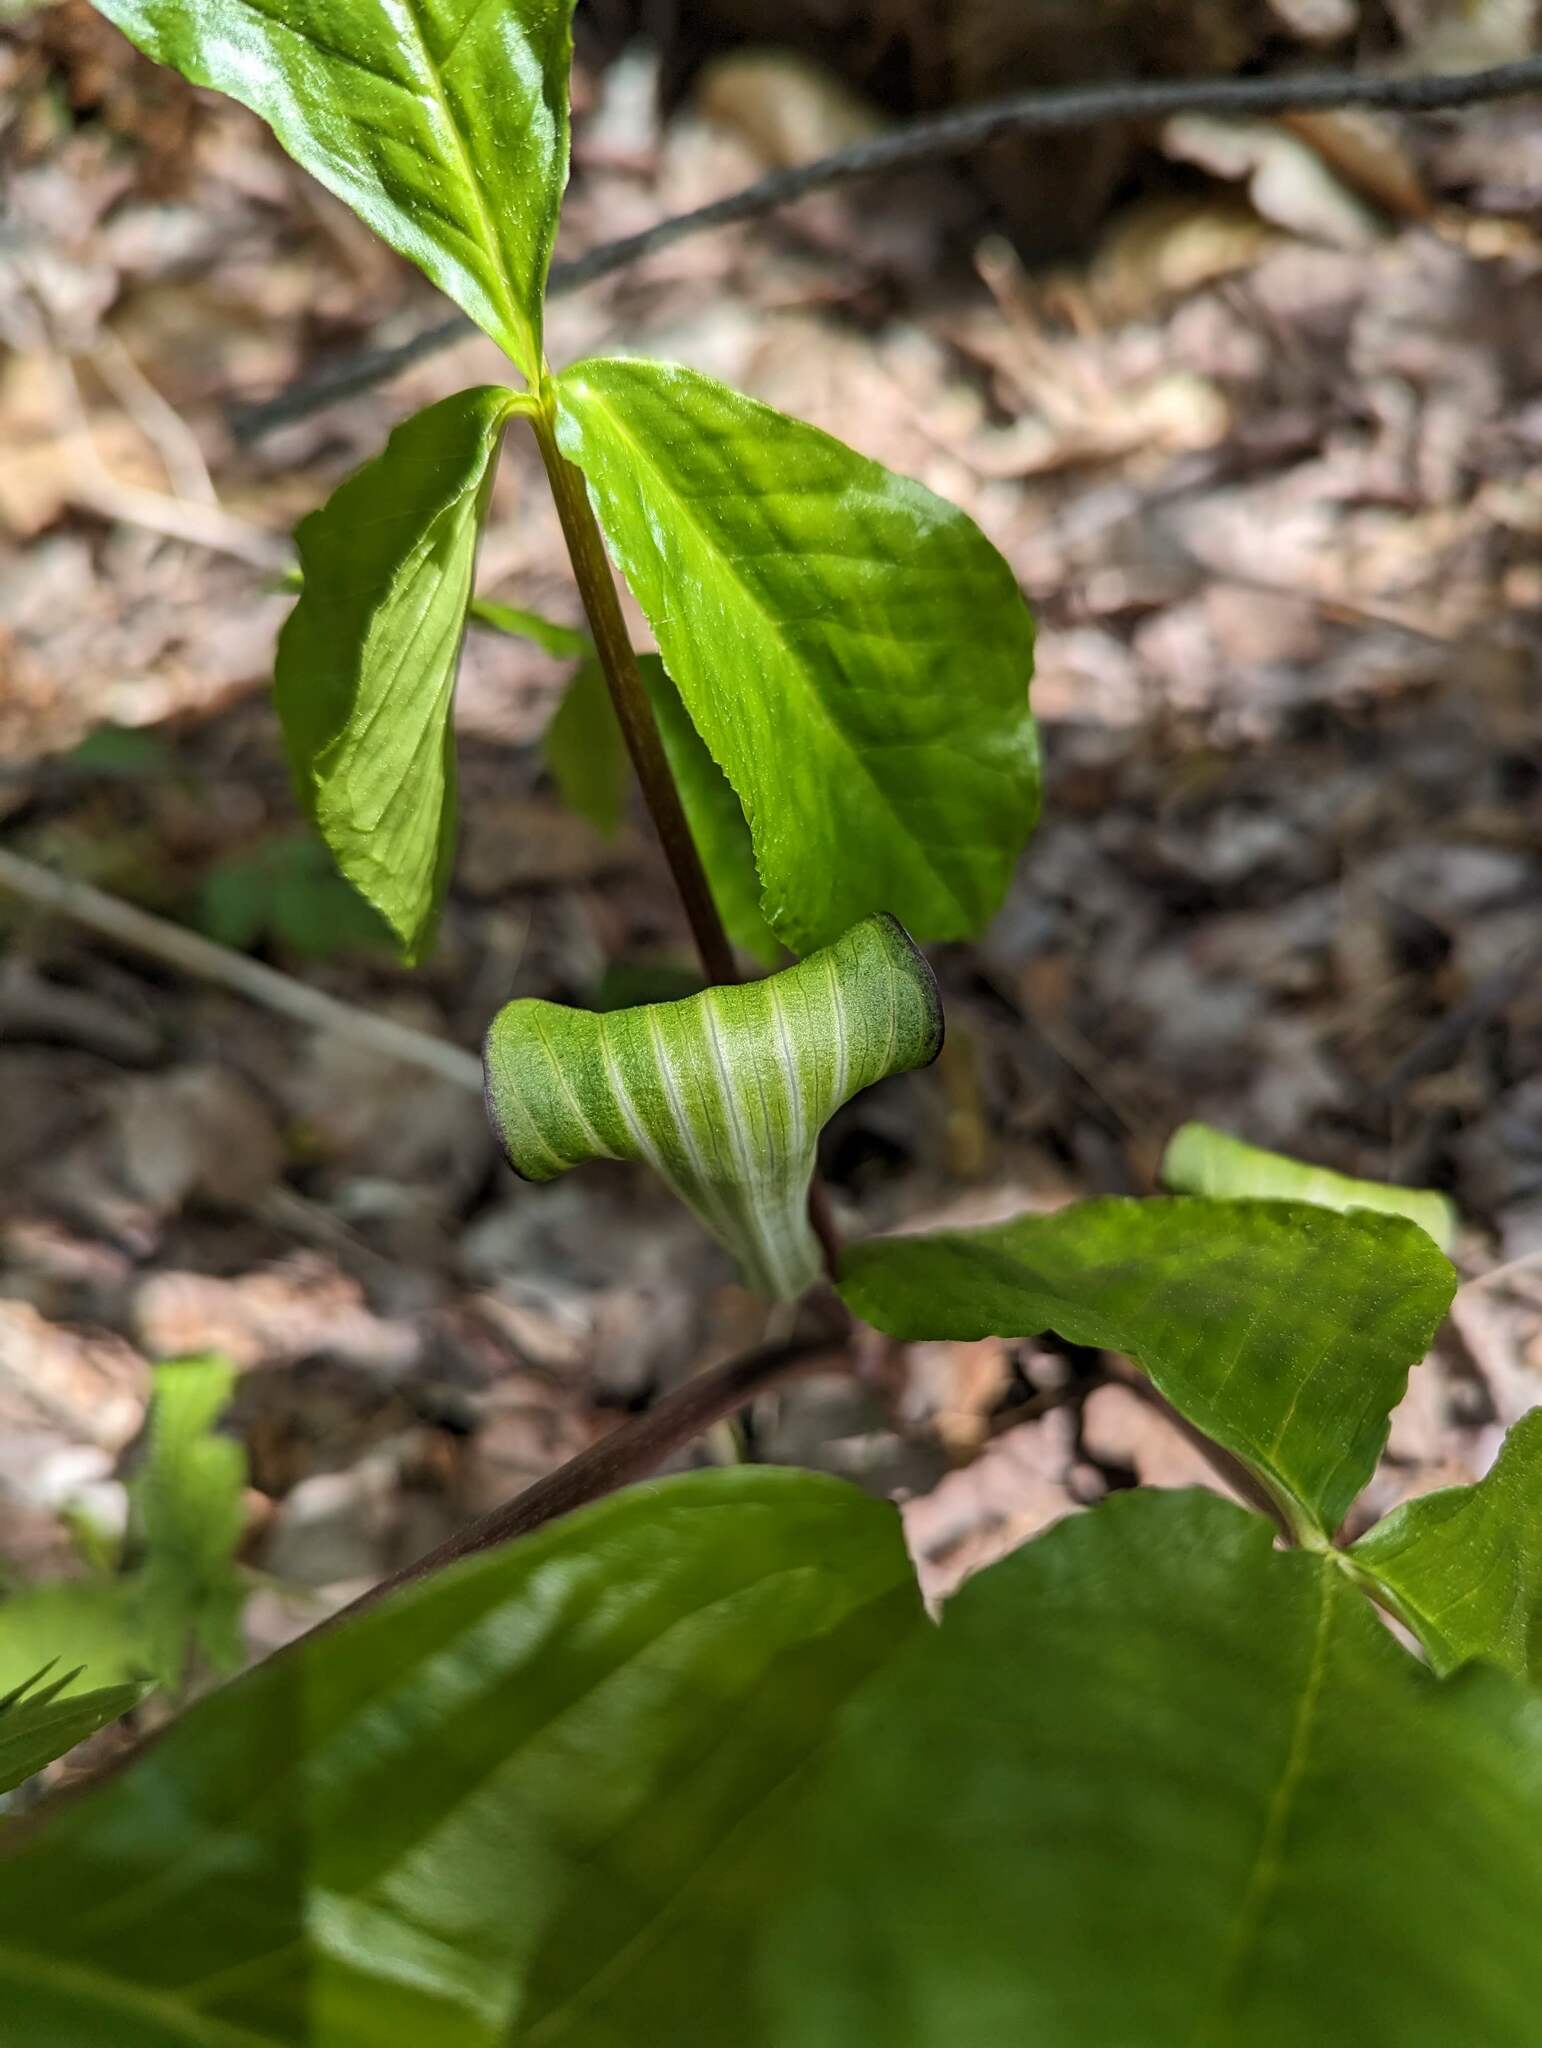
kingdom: Plantae
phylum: Tracheophyta
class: Liliopsida
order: Alismatales
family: Araceae
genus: Arisaema
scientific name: Arisaema triphyllum
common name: Jack-in-the-pulpit
